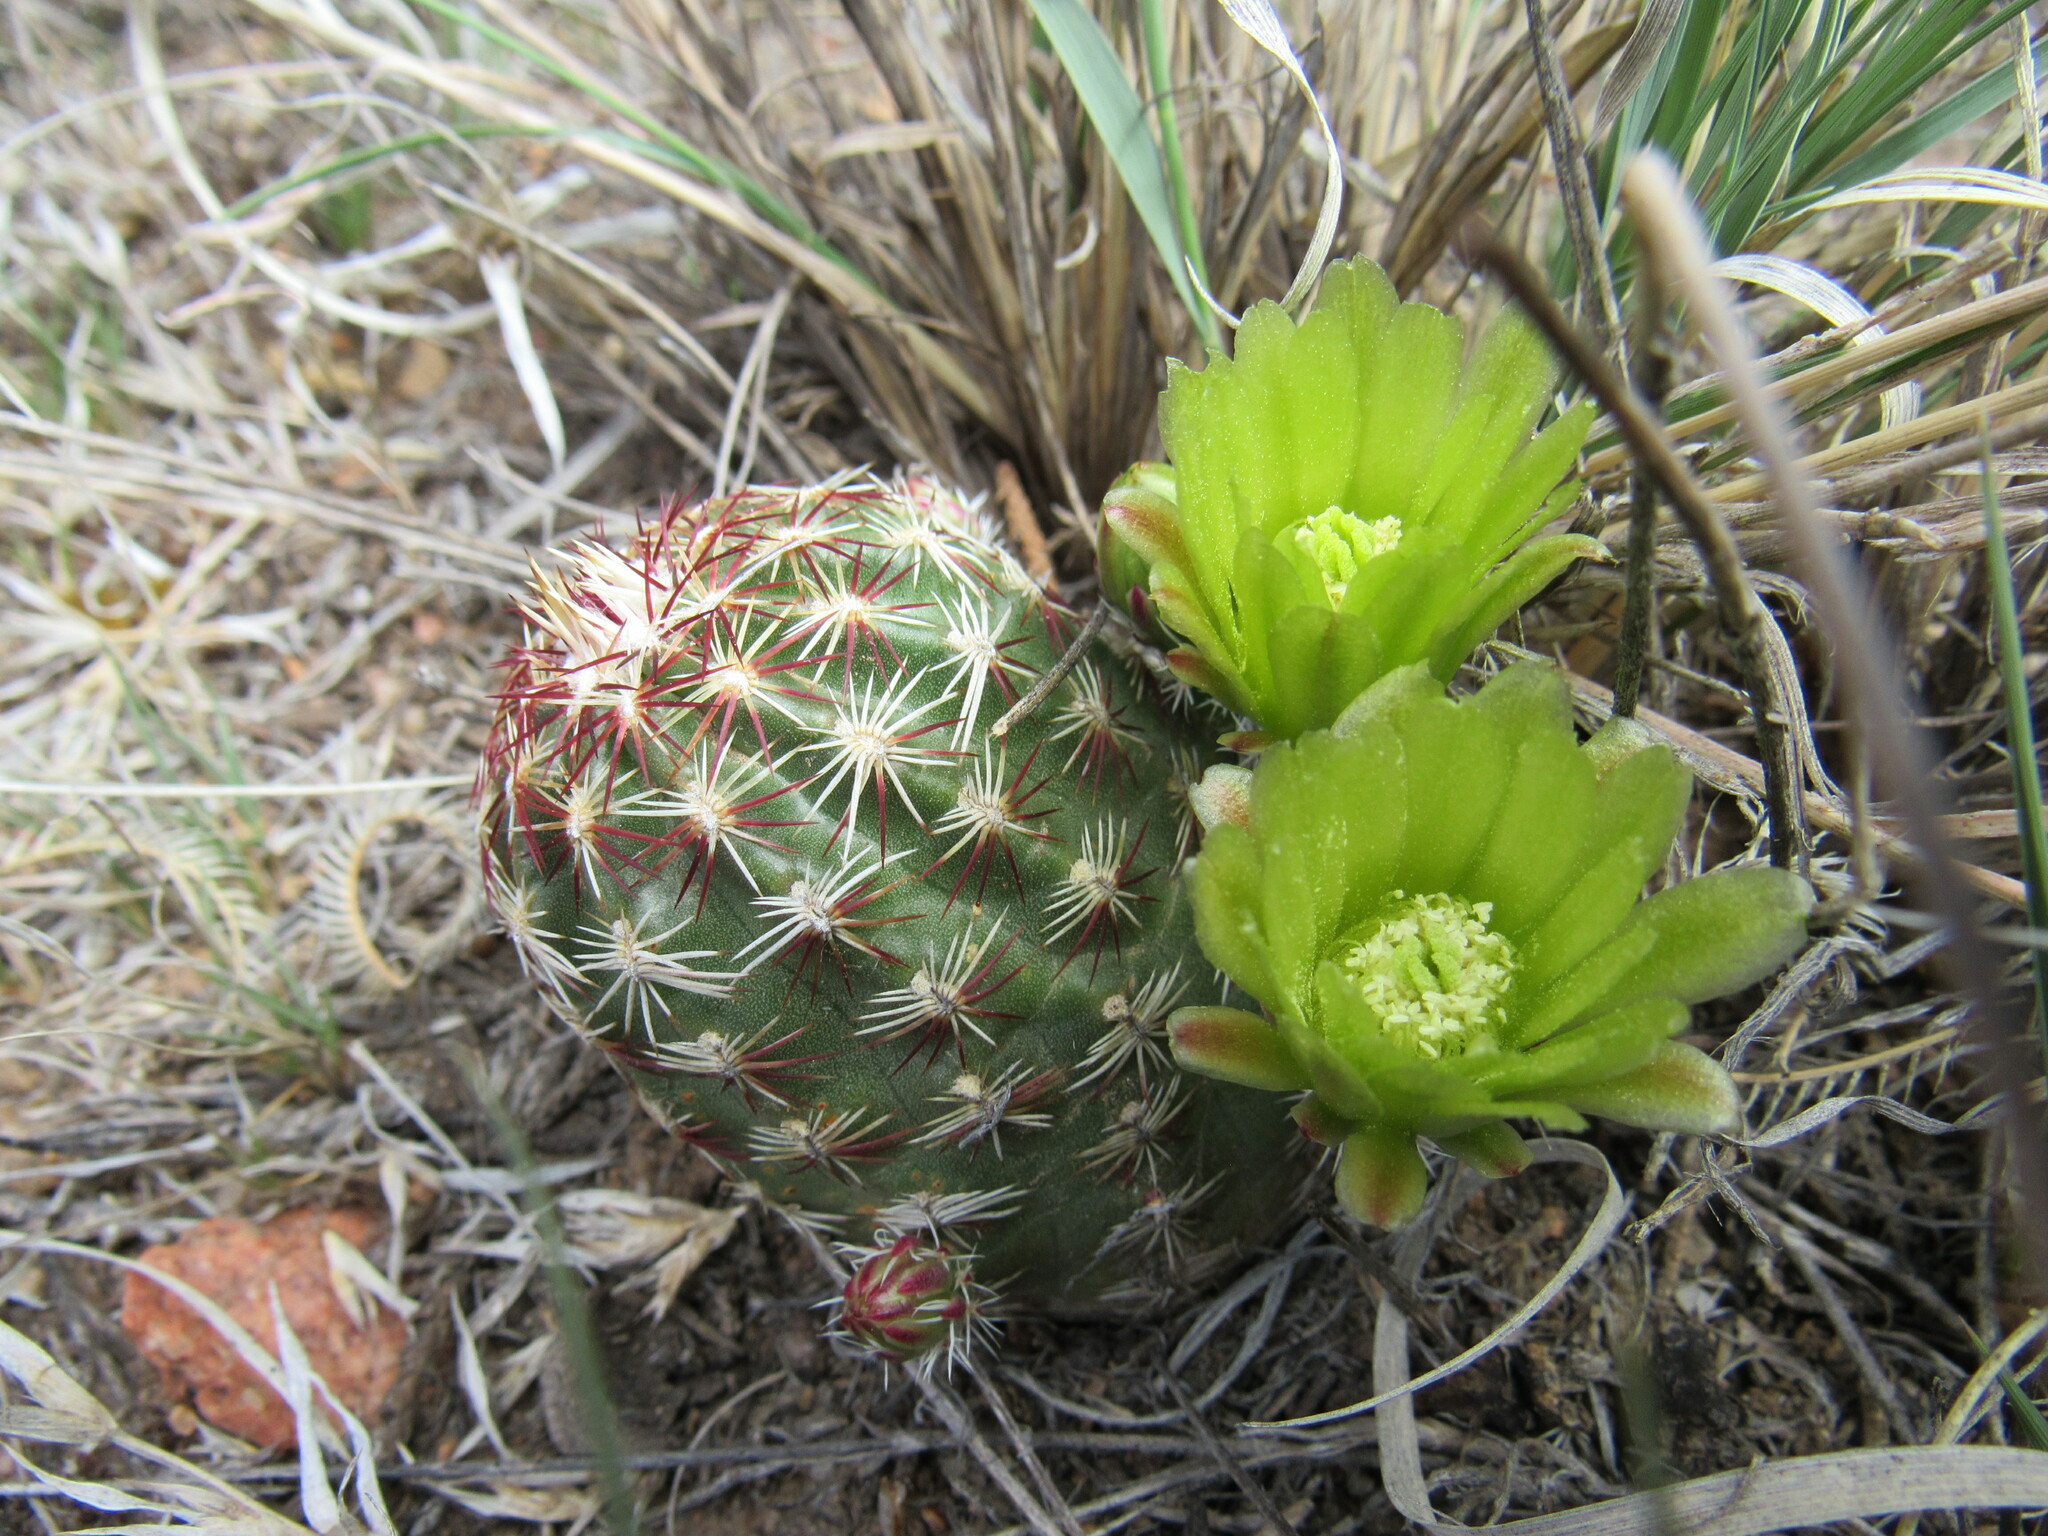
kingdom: Plantae
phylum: Tracheophyta
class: Magnoliopsida
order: Caryophyllales
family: Cactaceae
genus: Echinocereus
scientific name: Echinocereus viridiflorus
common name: Nylon hedgehog cactus
